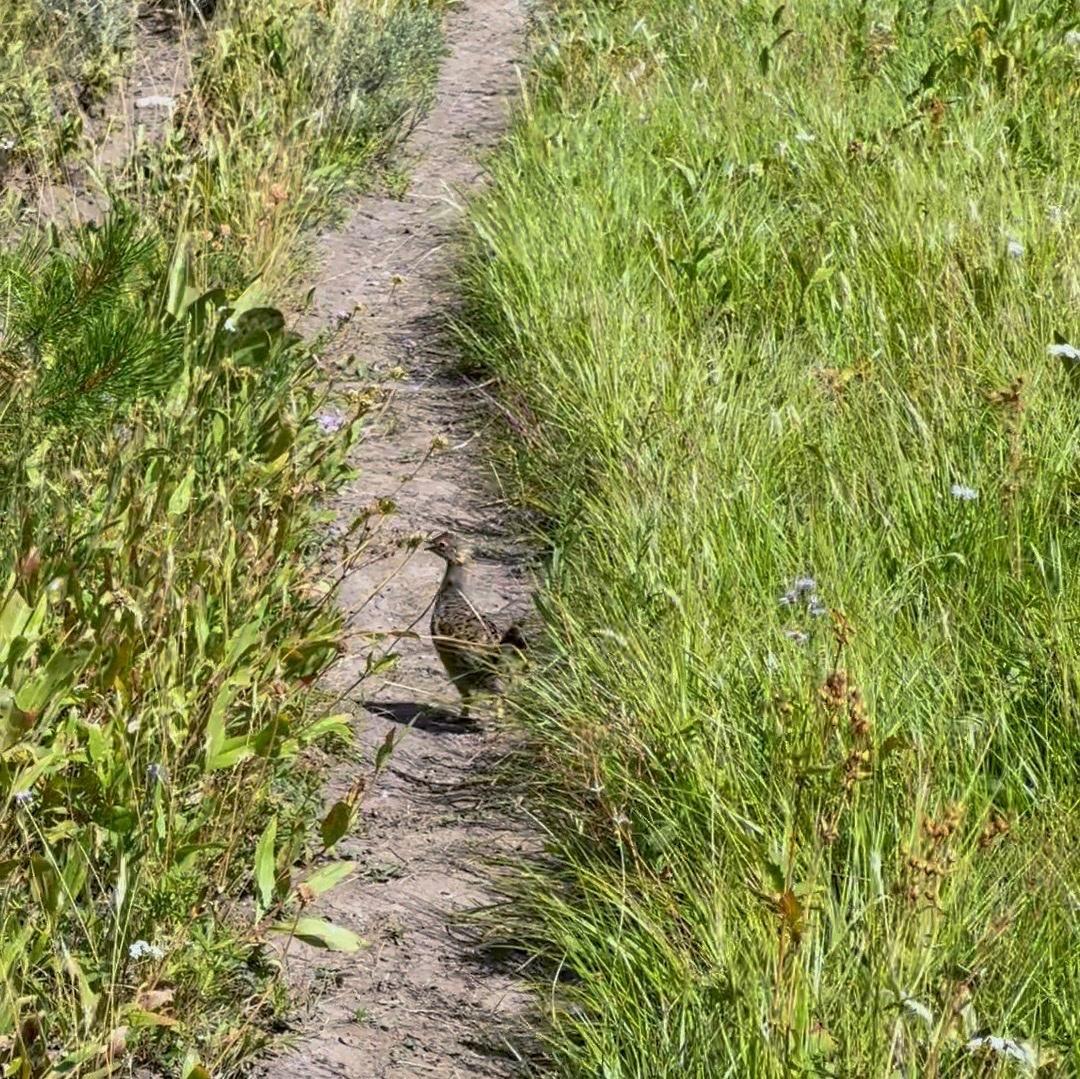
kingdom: Animalia
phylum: Chordata
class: Aves
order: Galliformes
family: Phasianidae
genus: Dendragapus
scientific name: Dendragapus obscurus
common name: Dusky grouse
